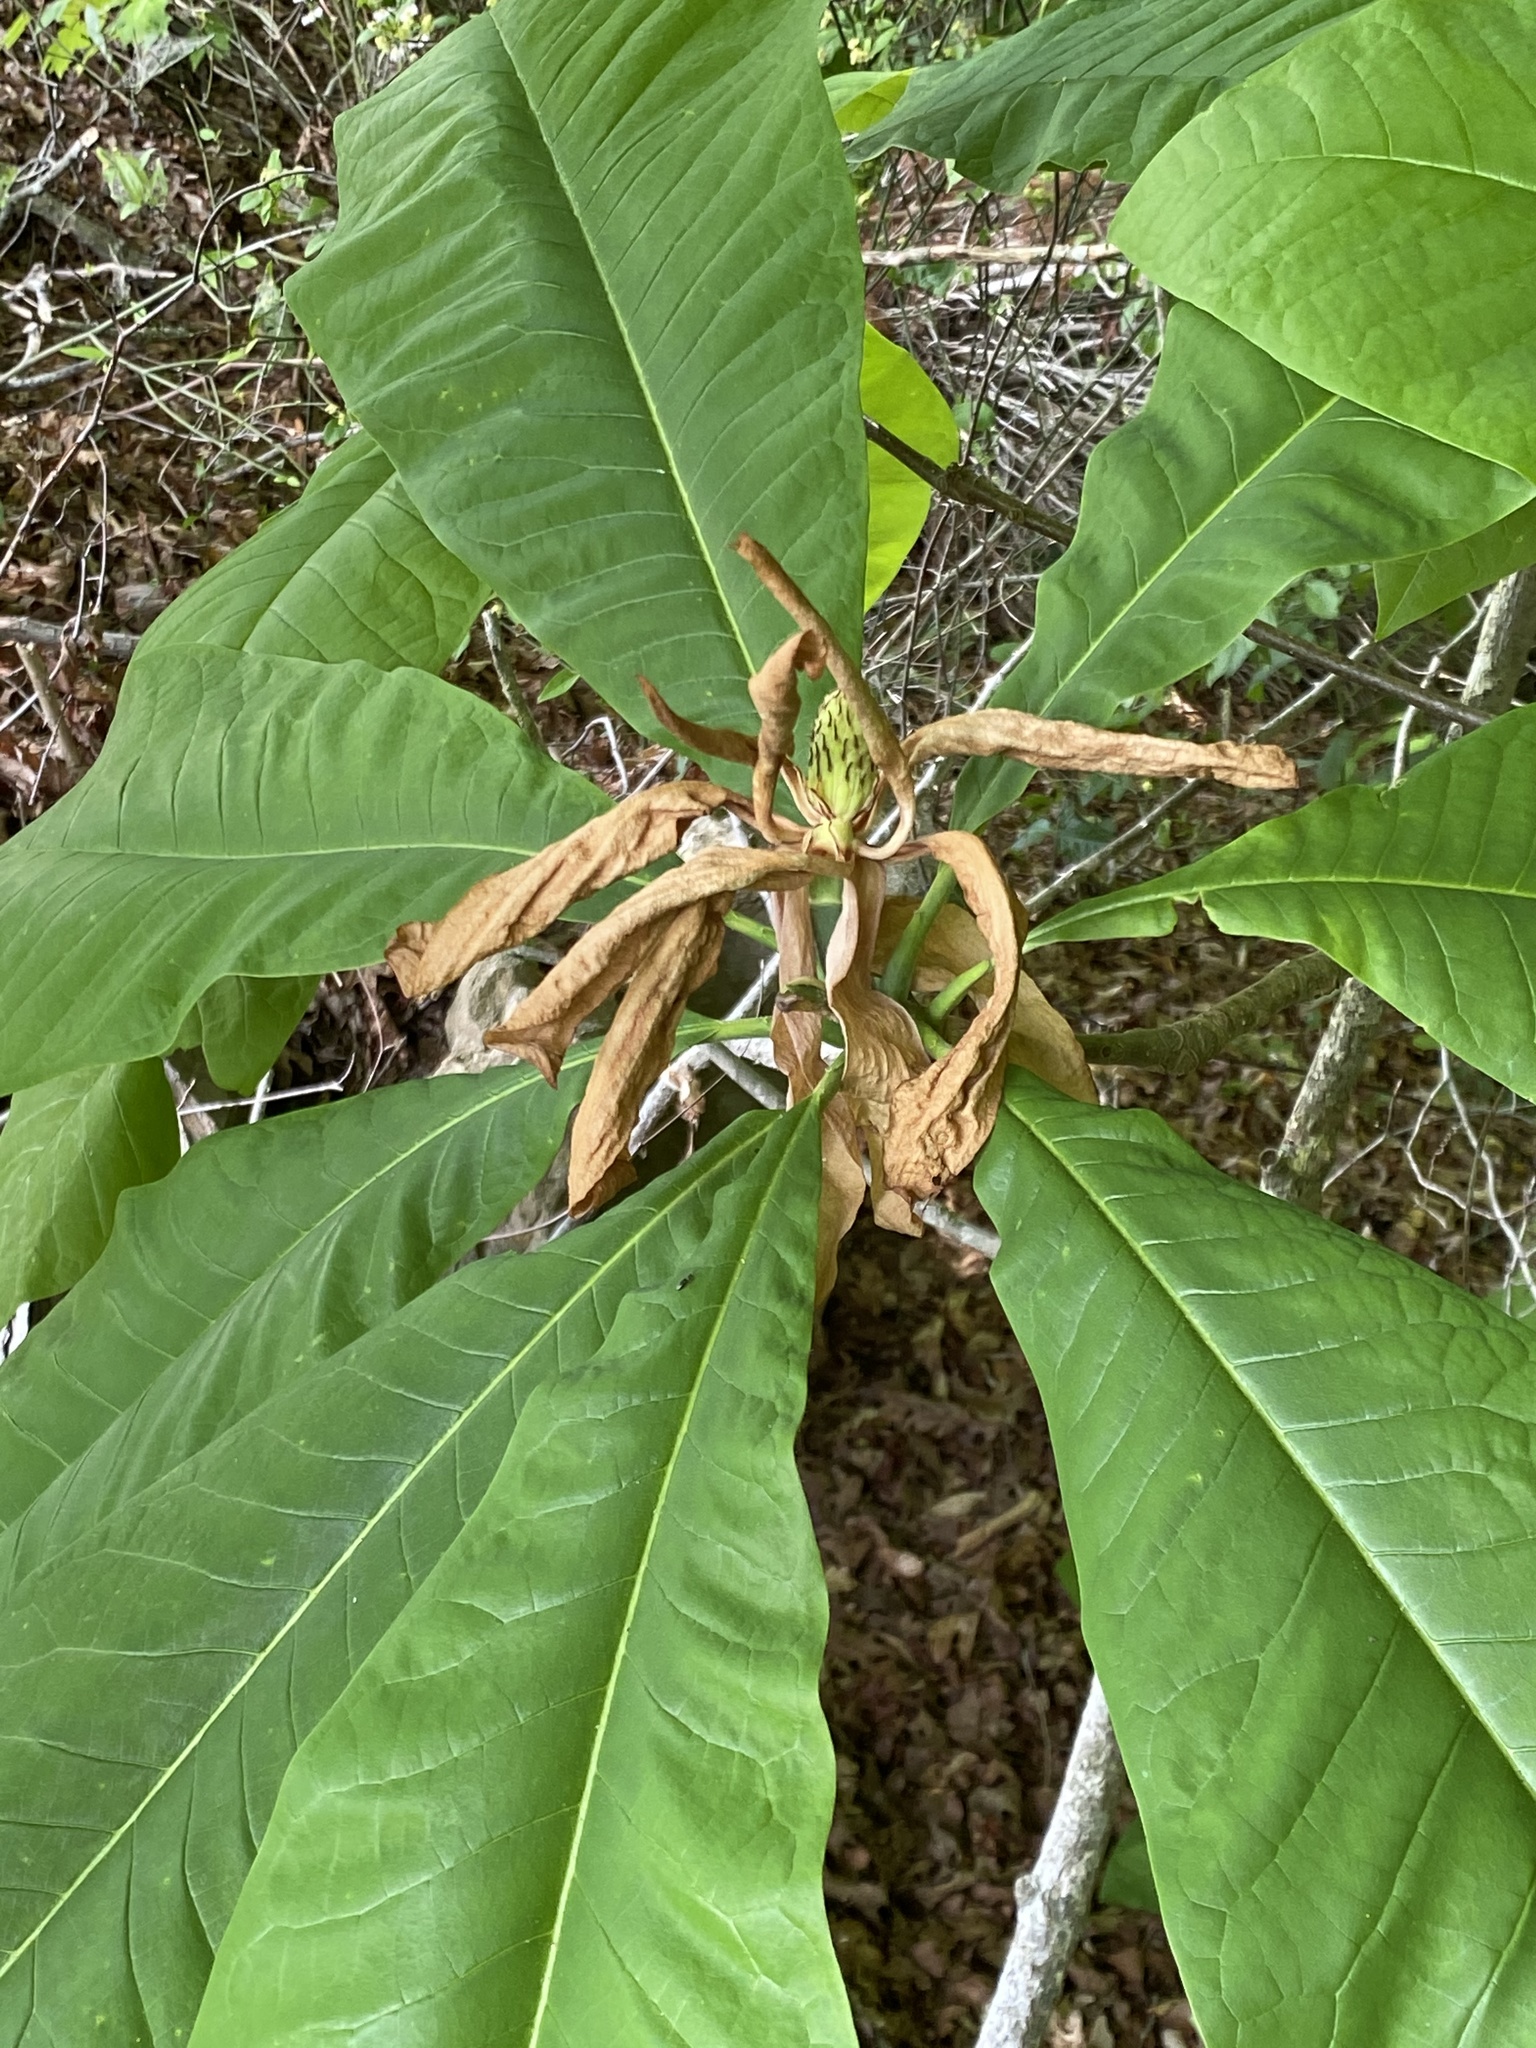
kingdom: Plantae
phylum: Tracheophyta
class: Magnoliopsida
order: Magnoliales
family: Magnoliaceae
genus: Magnolia
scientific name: Magnolia tripetala
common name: Umbrella magnolia
